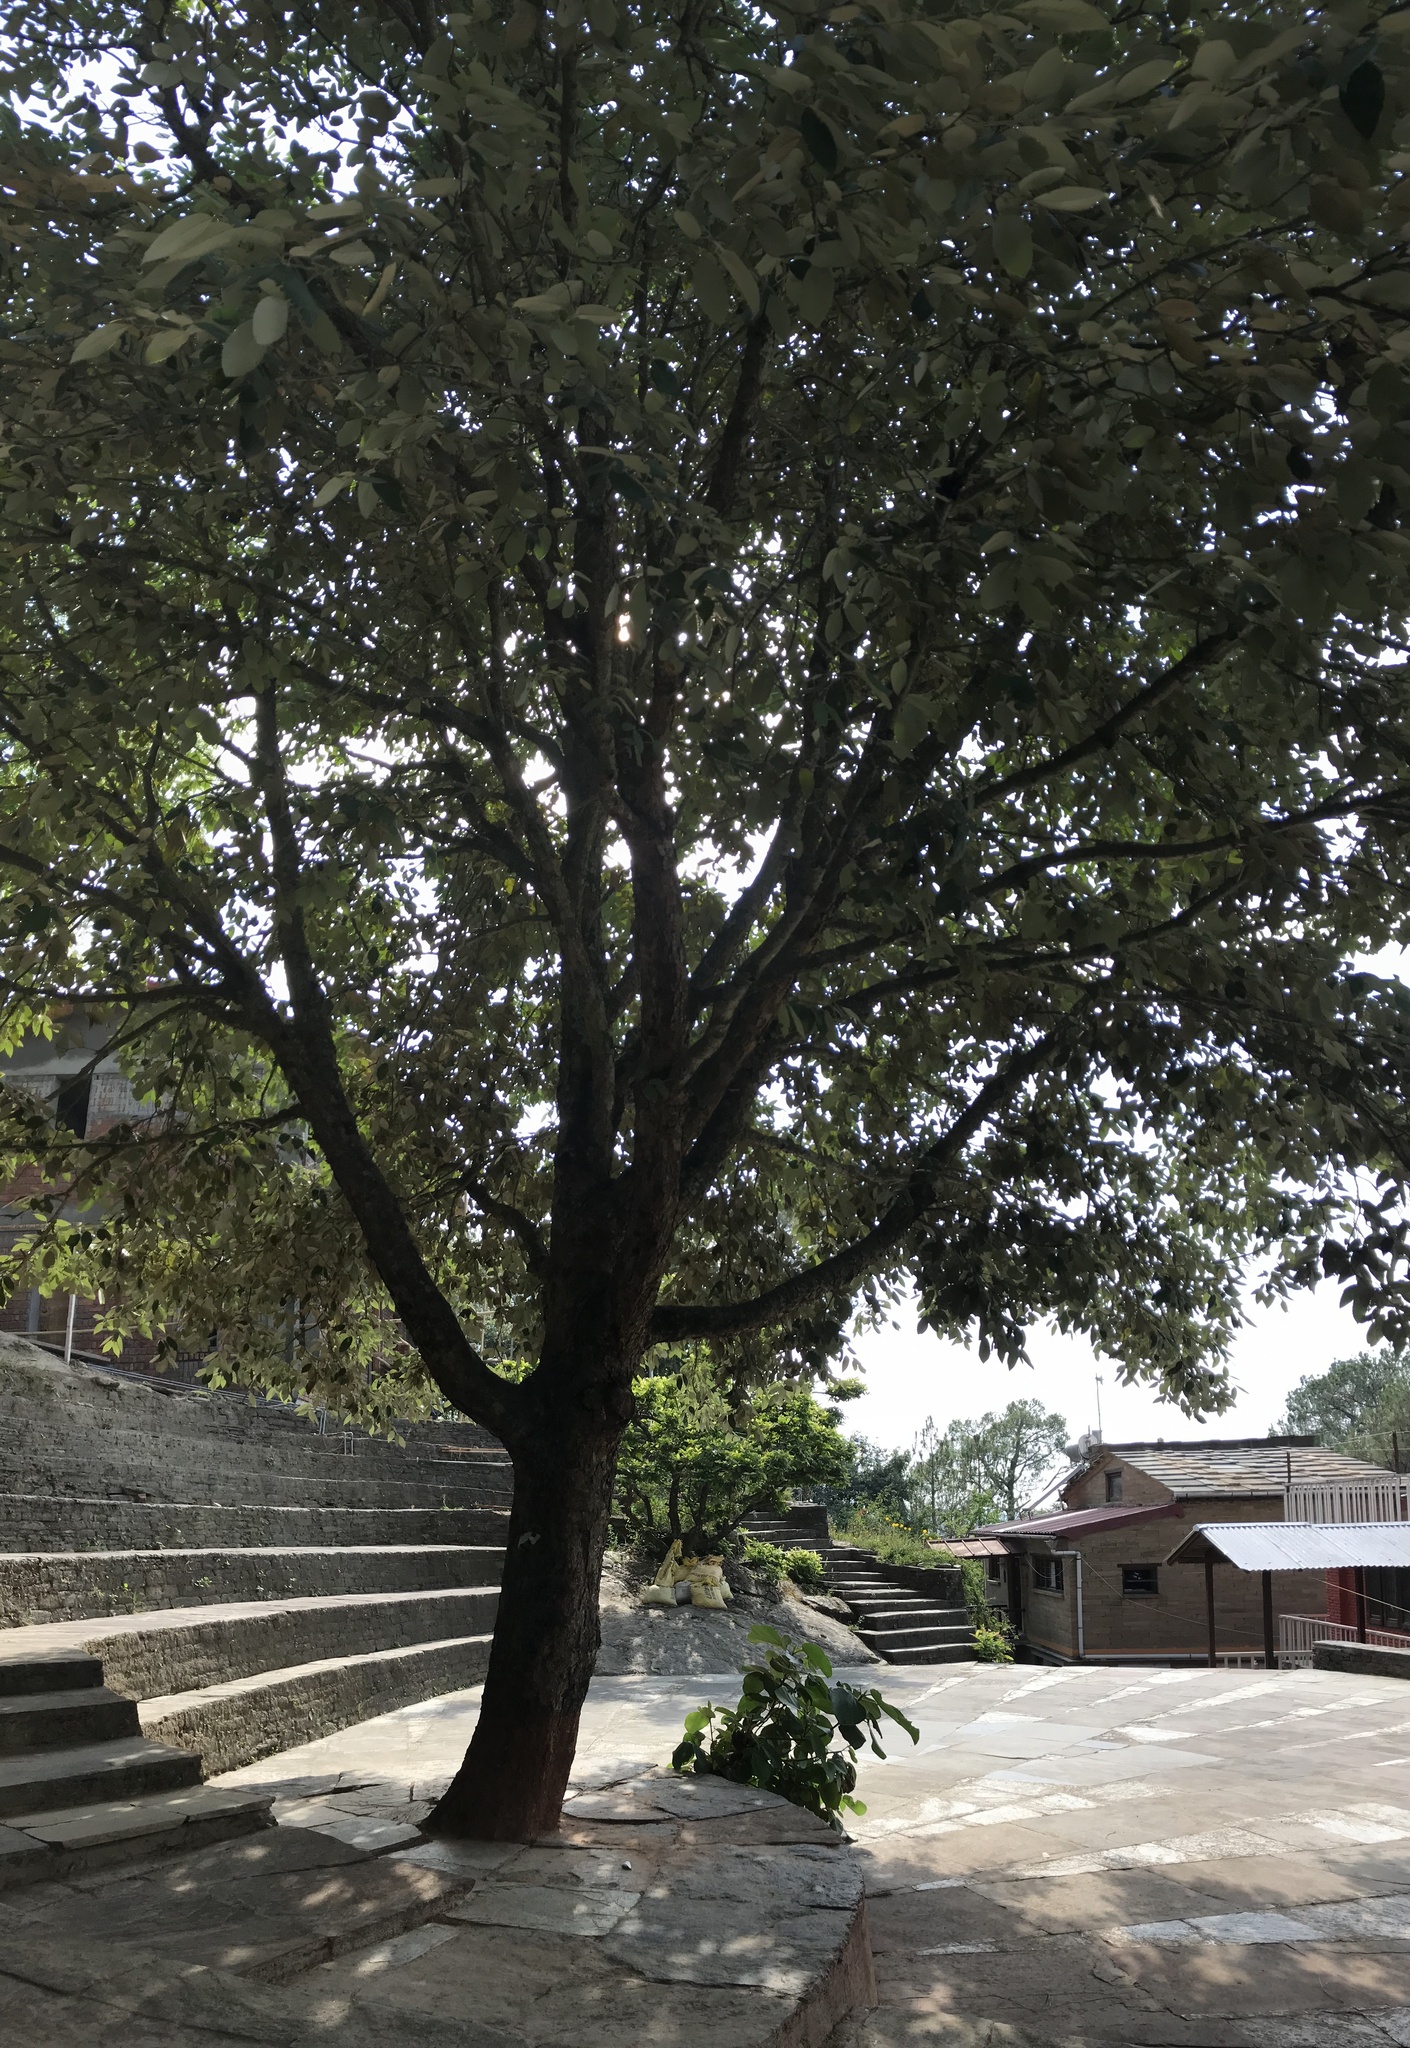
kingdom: Plantae
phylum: Tracheophyta
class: Magnoliopsida
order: Fagales
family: Fagaceae
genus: Quercus
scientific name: Quercus leucotrichophora
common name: Banj oak
